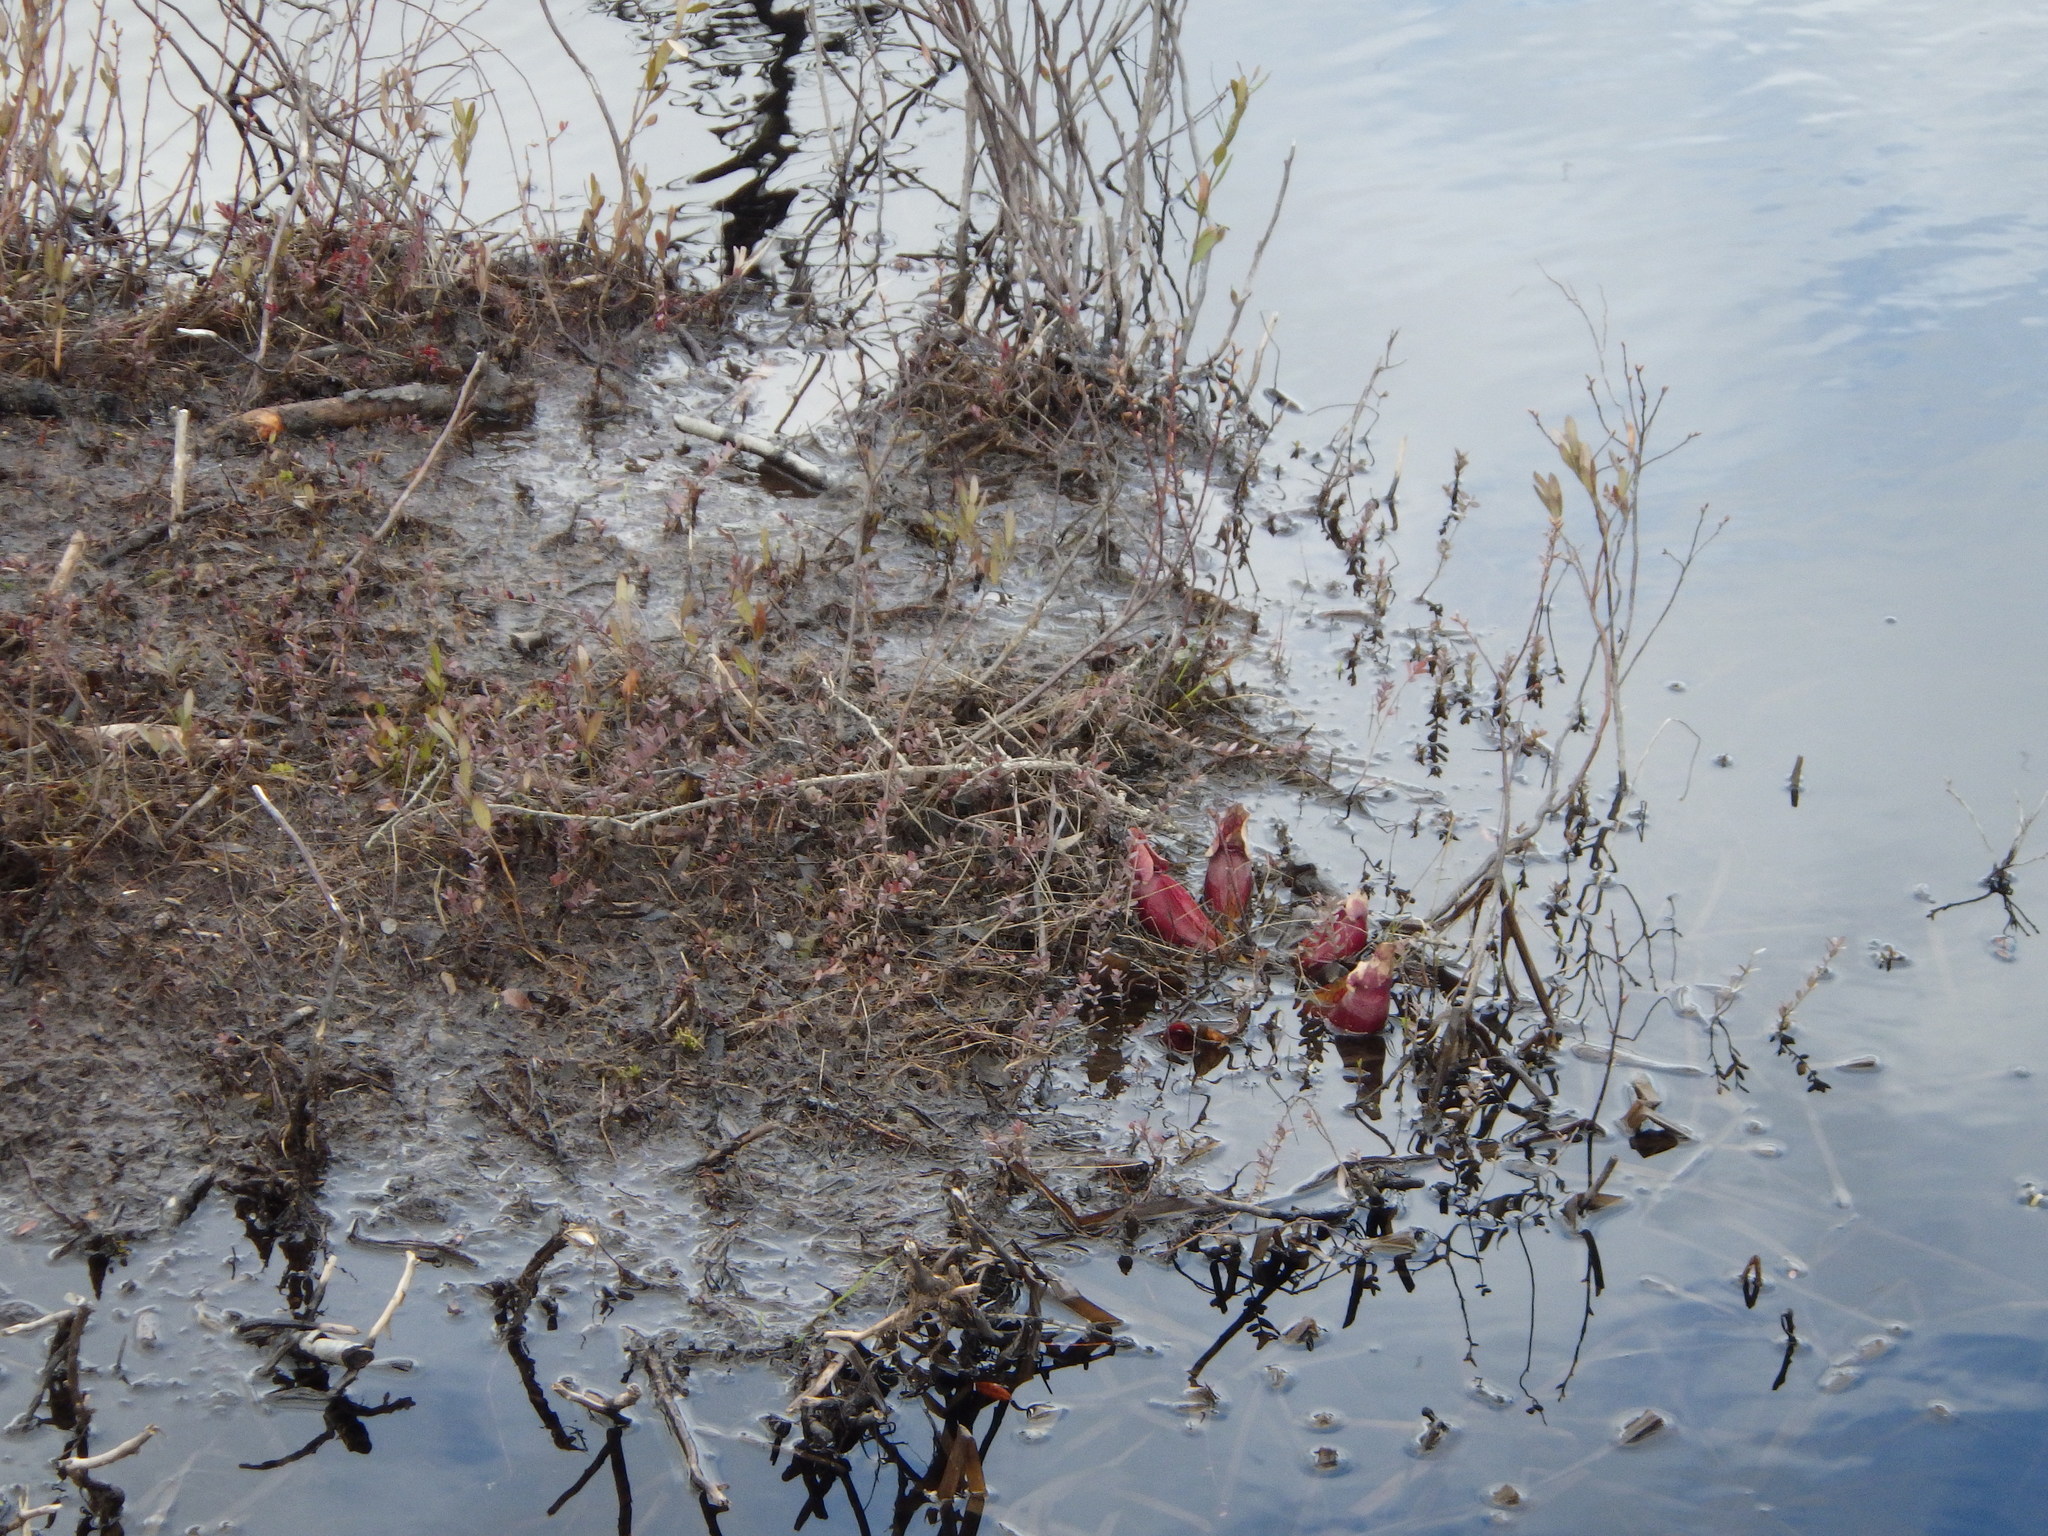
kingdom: Plantae
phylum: Tracheophyta
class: Magnoliopsida
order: Ericales
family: Sarraceniaceae
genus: Sarracenia
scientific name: Sarracenia purpurea
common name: Pitcherplant
